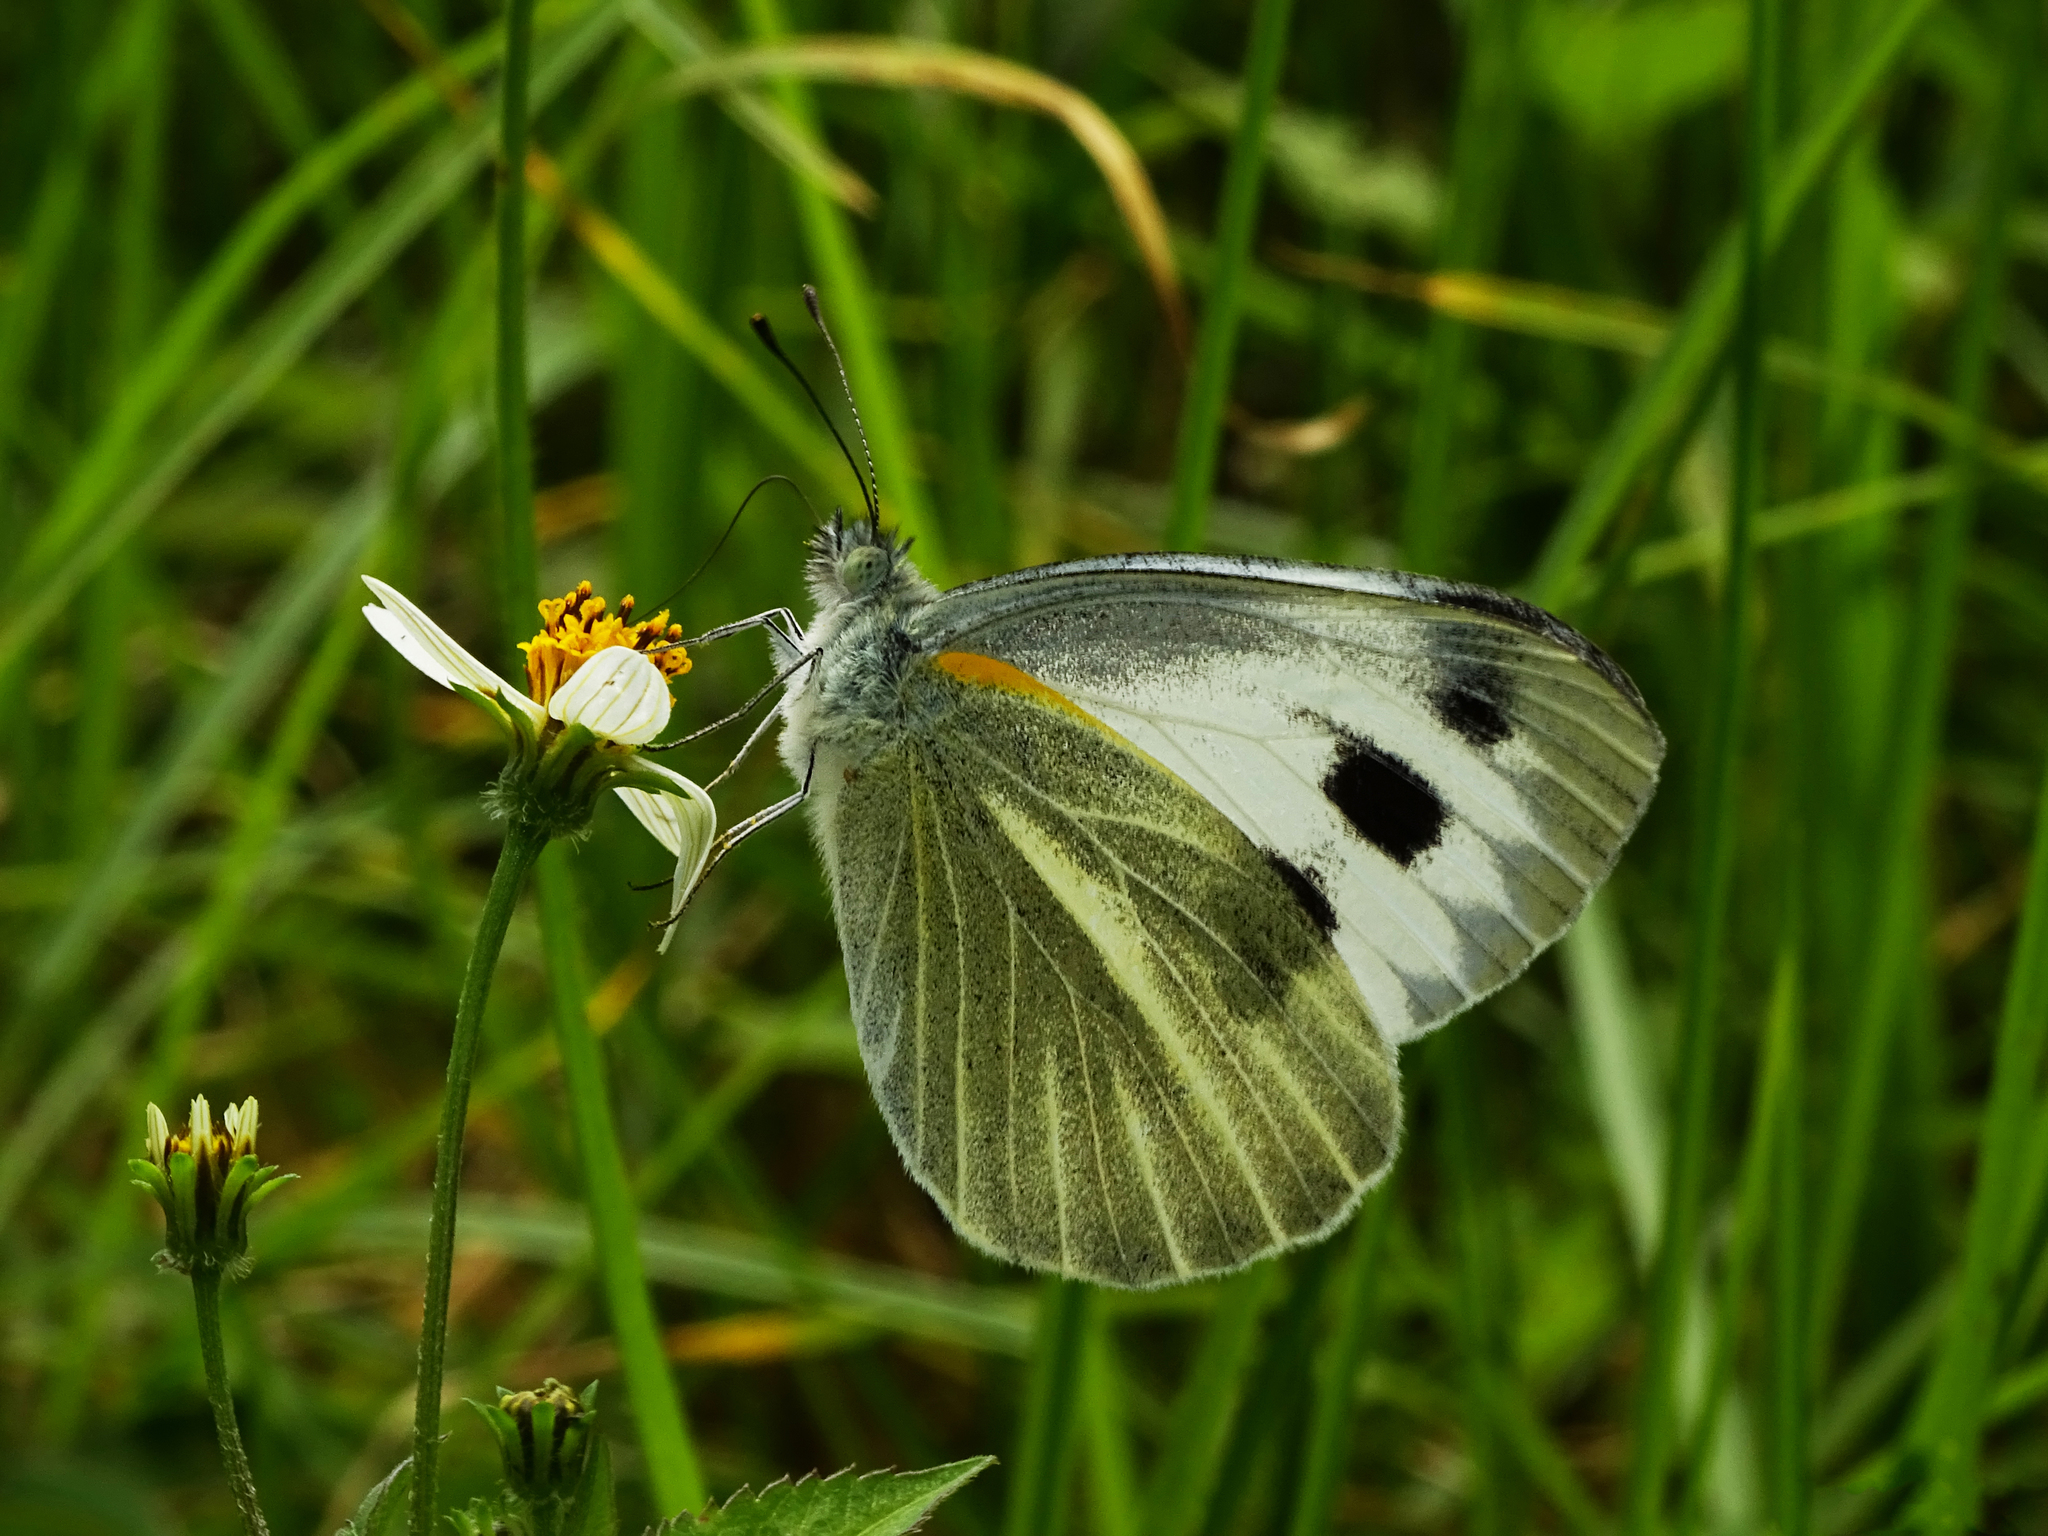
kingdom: Animalia
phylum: Arthropoda
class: Insecta
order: Lepidoptera
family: Pieridae
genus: Pieris
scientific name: Pieris canidia
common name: Indian cabbage white
